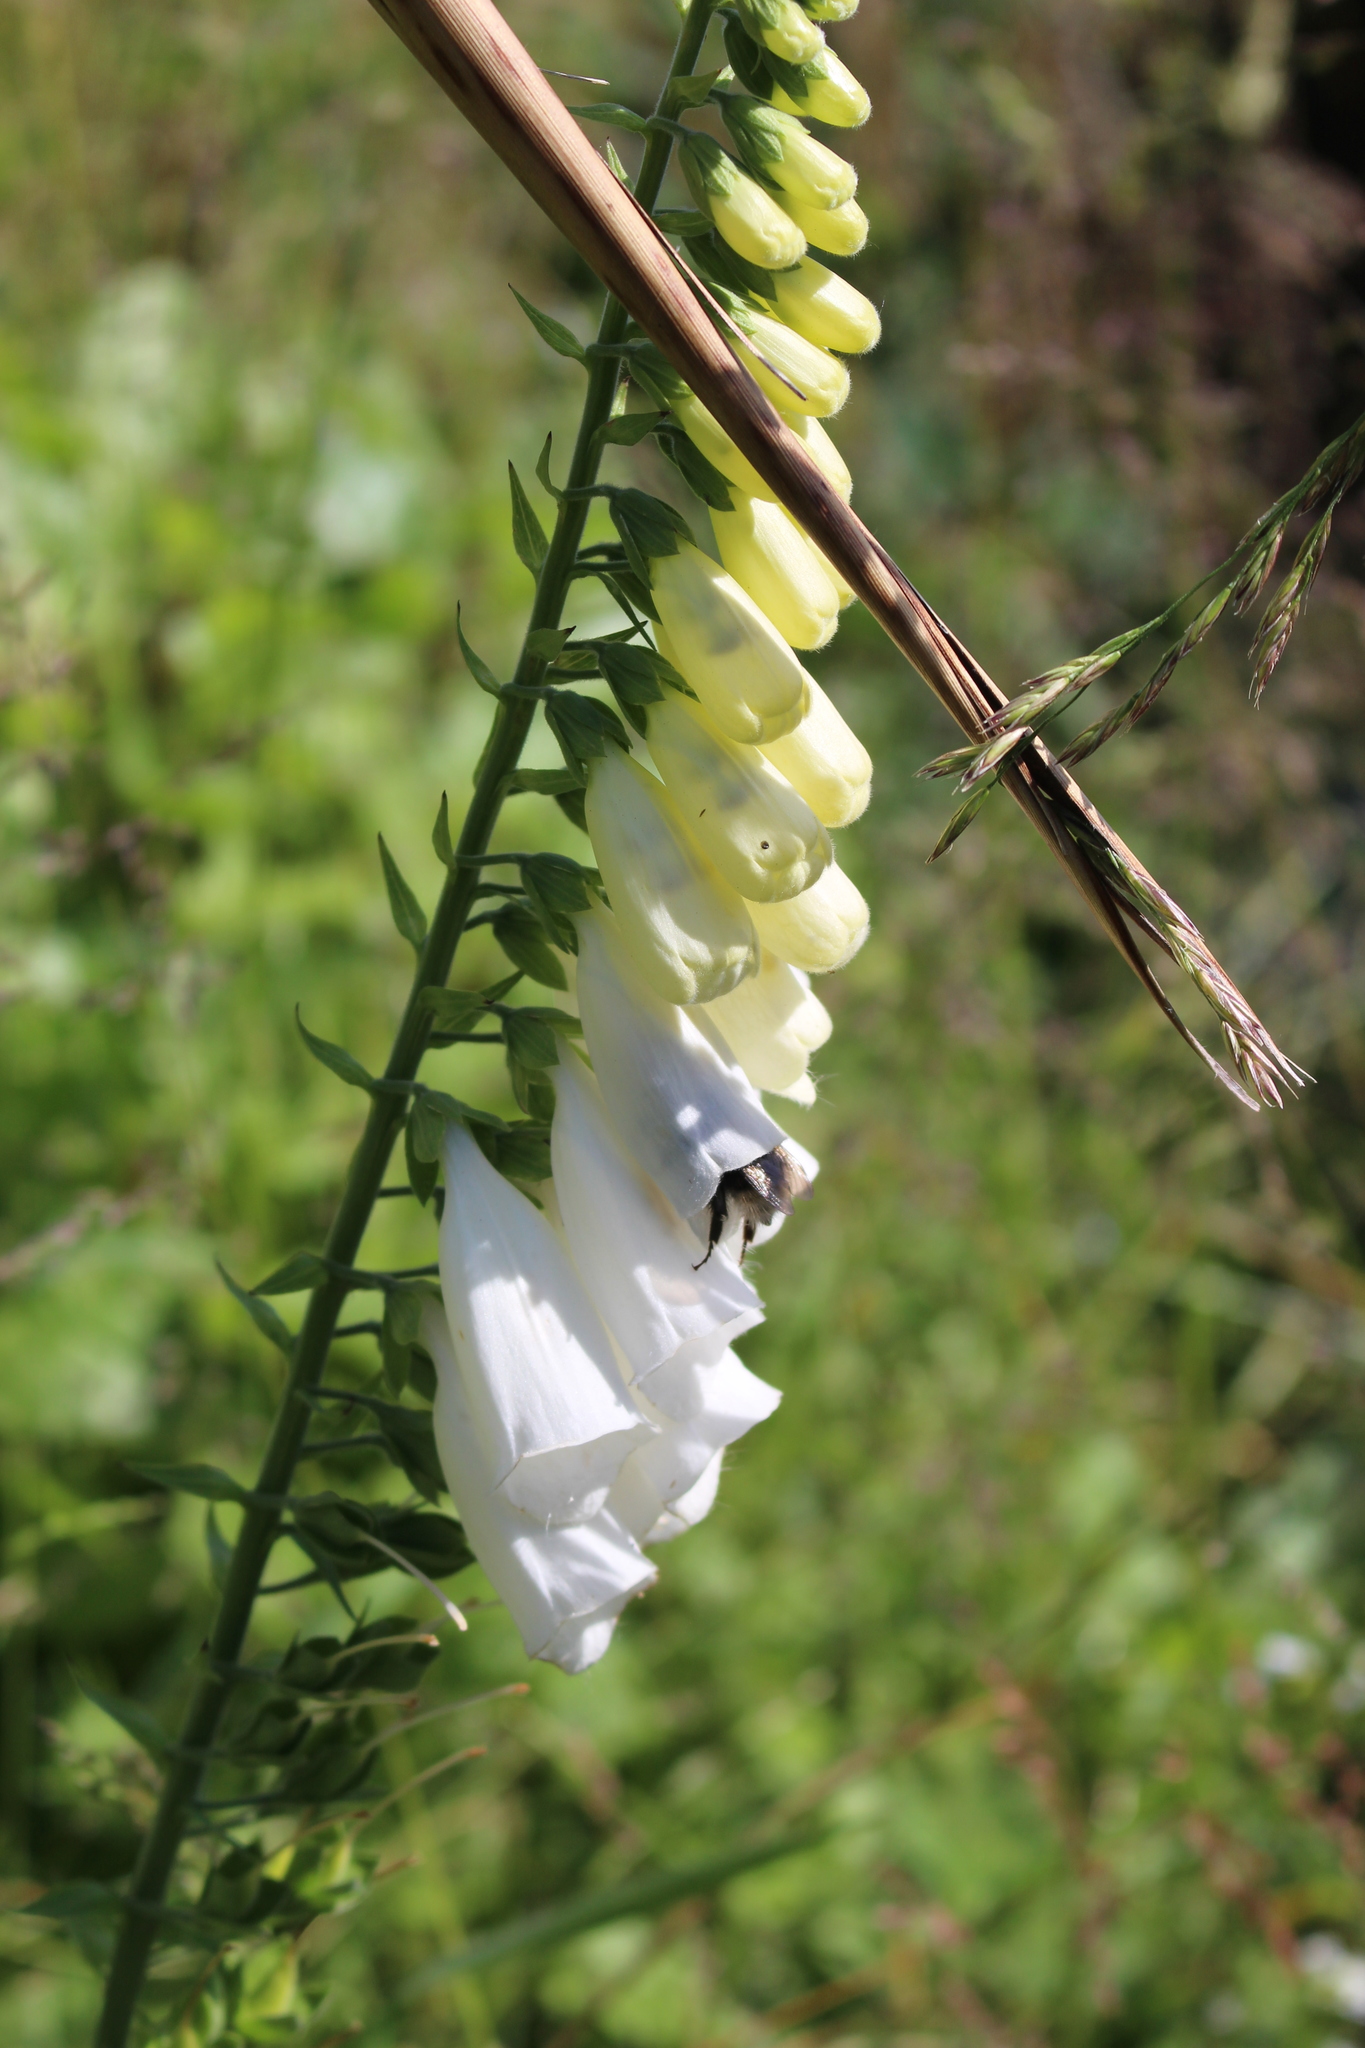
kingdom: Plantae
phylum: Tracheophyta
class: Magnoliopsida
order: Lamiales
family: Plantaginaceae
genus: Digitalis
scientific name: Digitalis purpurea
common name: Foxglove
